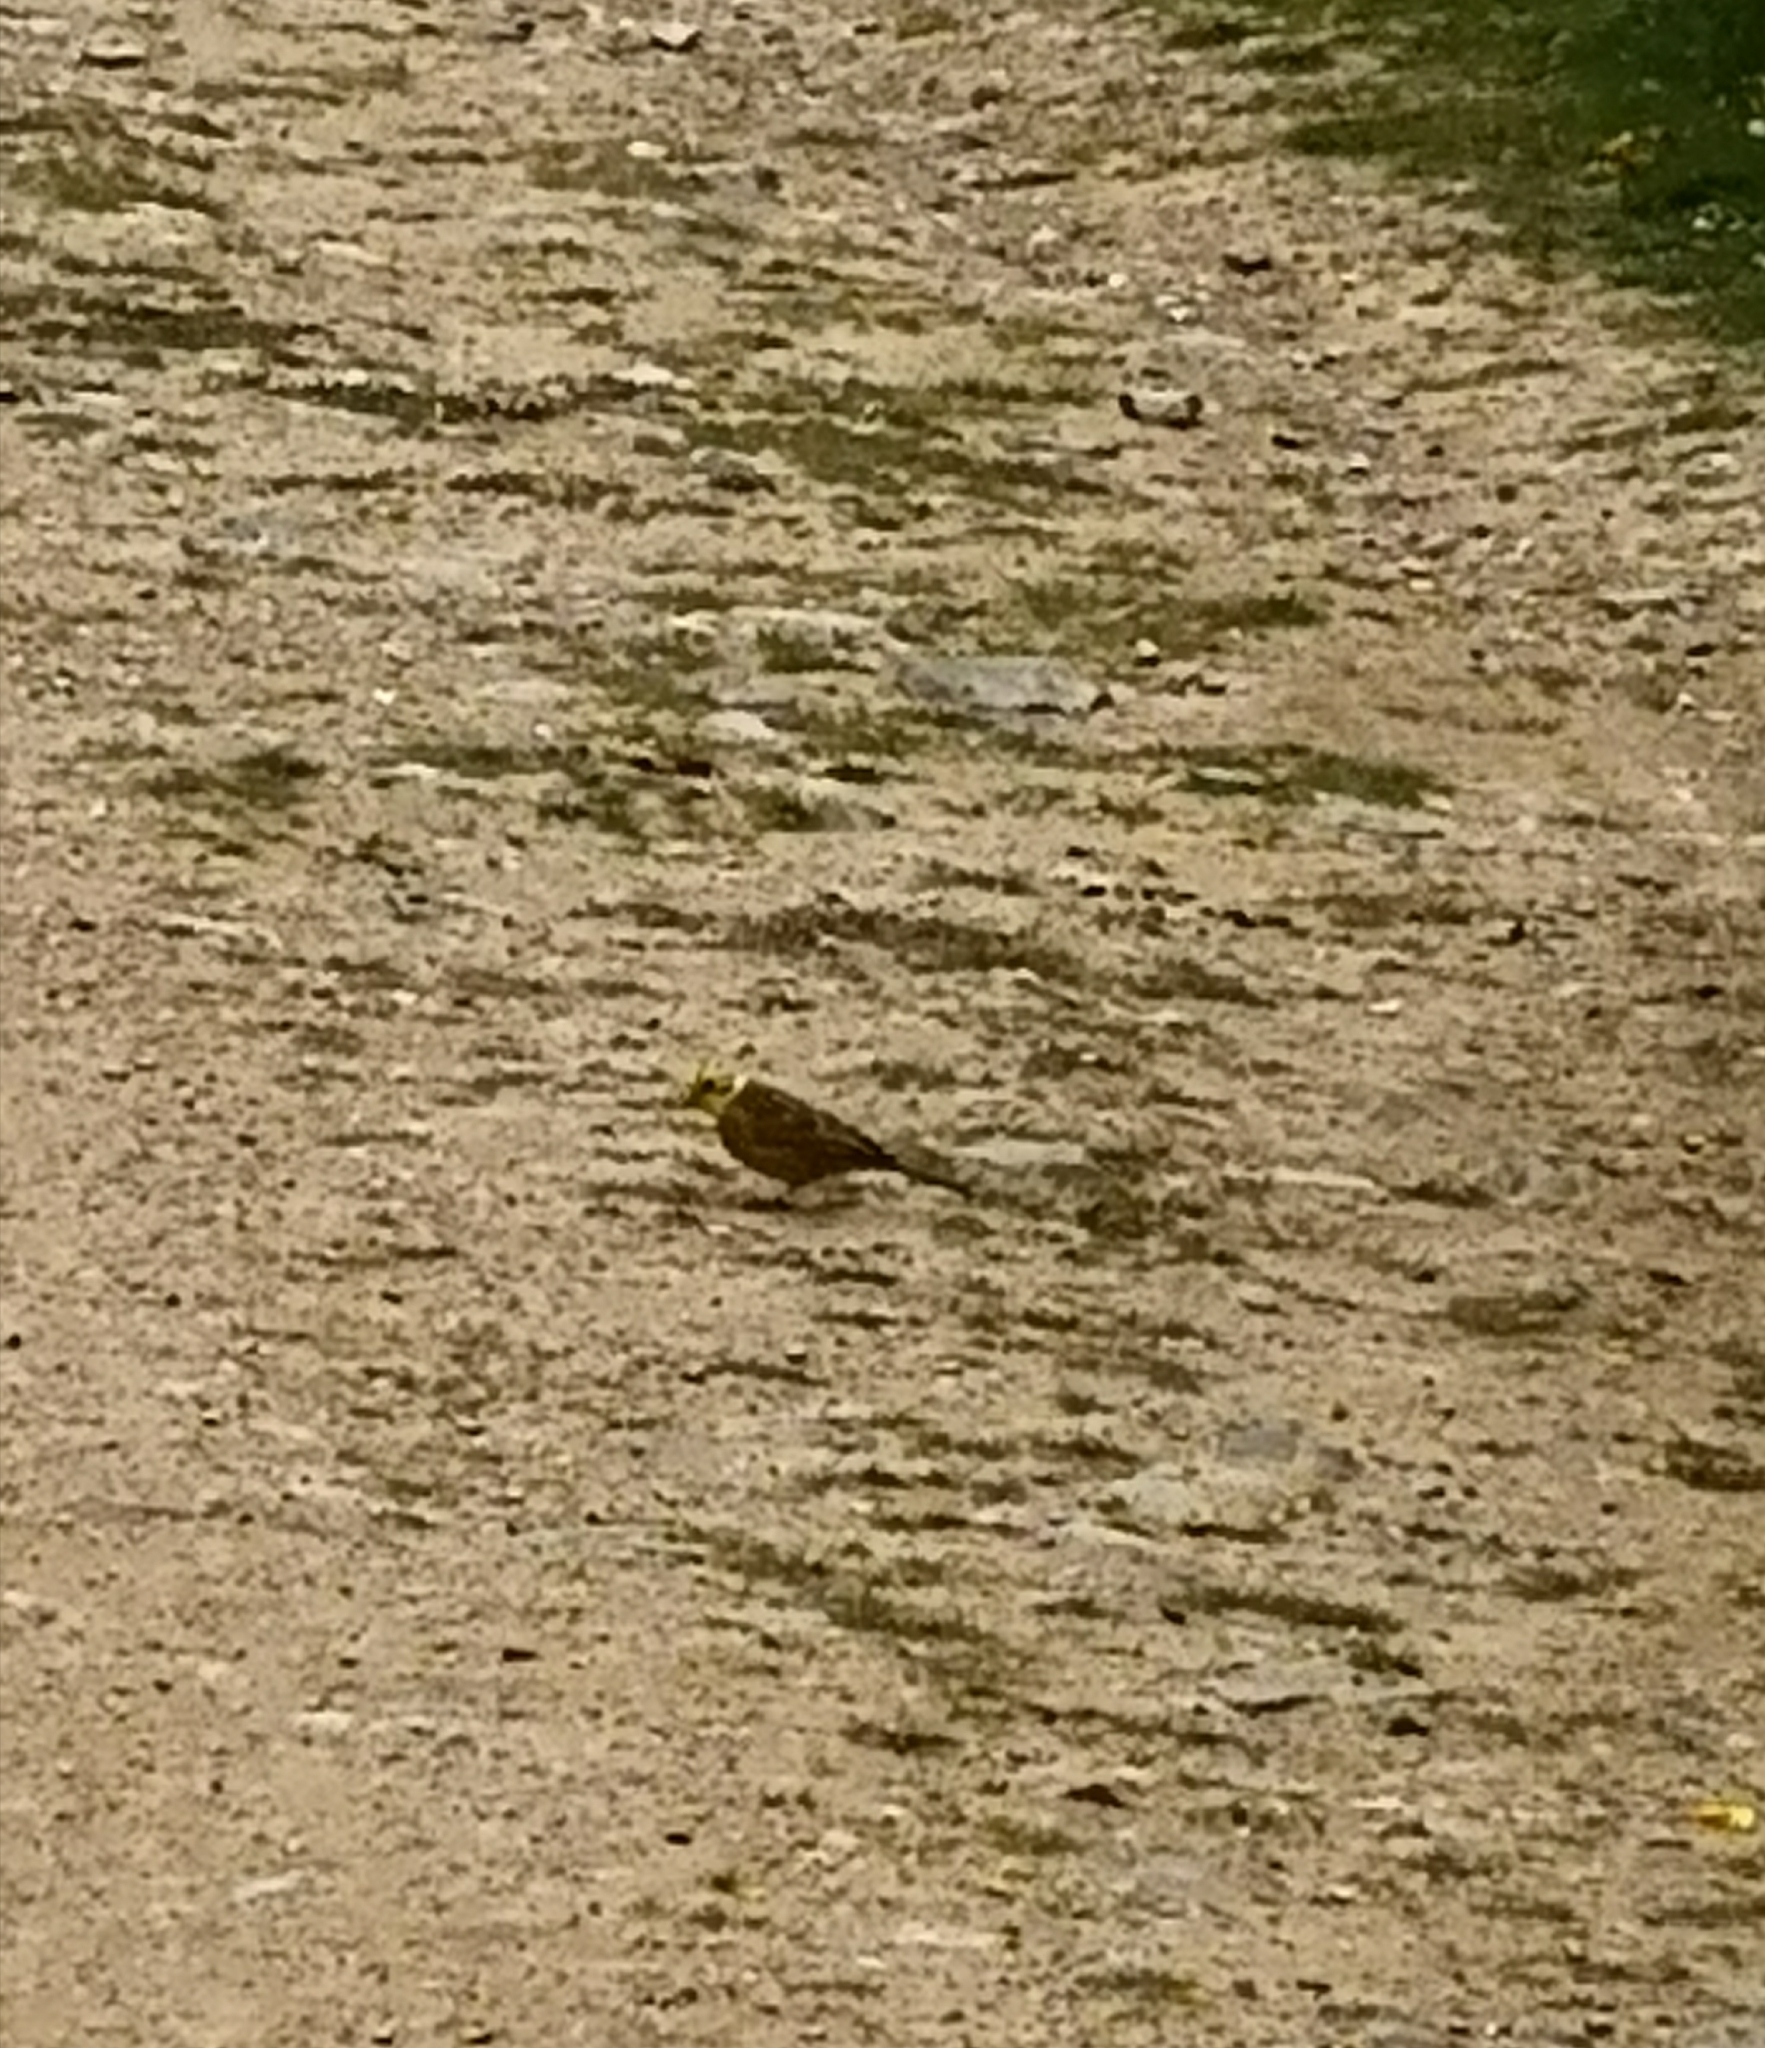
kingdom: Animalia
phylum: Chordata
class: Aves
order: Passeriformes
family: Emberizidae
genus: Emberiza
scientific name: Emberiza citrinella
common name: Yellowhammer
